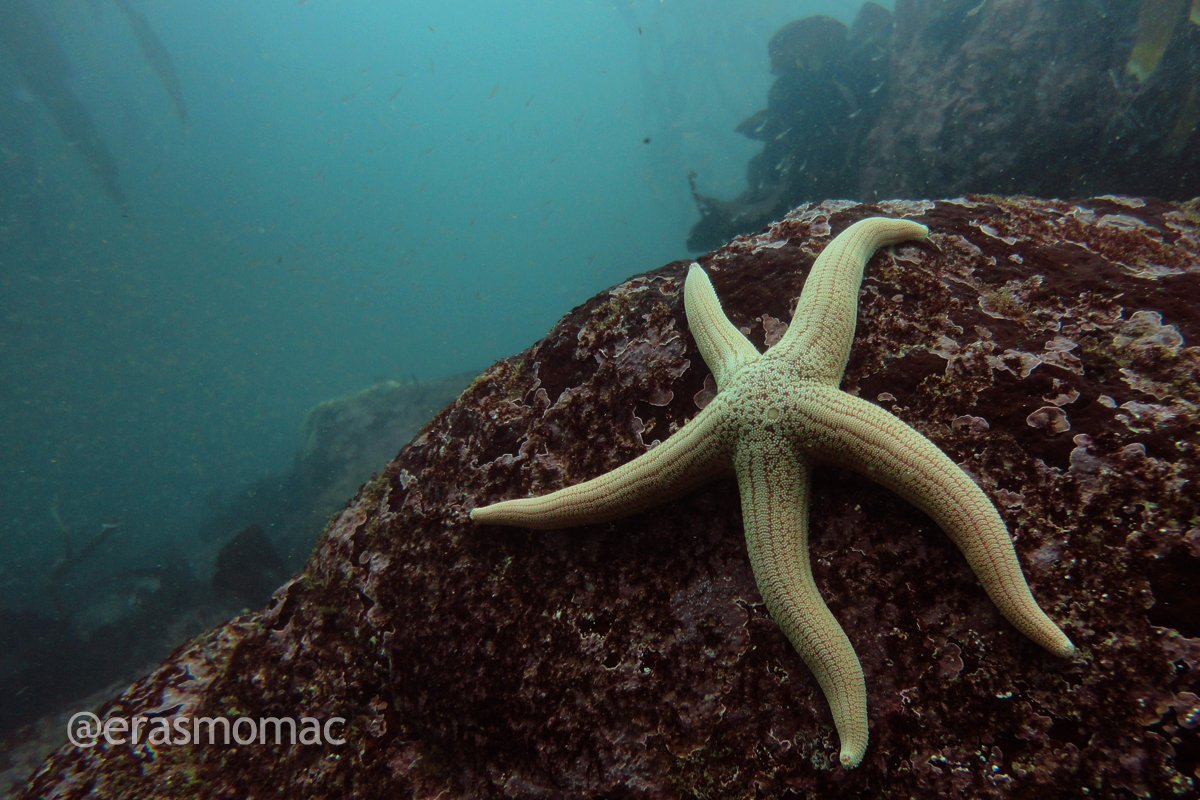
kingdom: Animalia
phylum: Echinodermata
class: Asteroidea
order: Forcipulatida
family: Stichasteridae
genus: Stichaster
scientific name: Stichaster striatus
